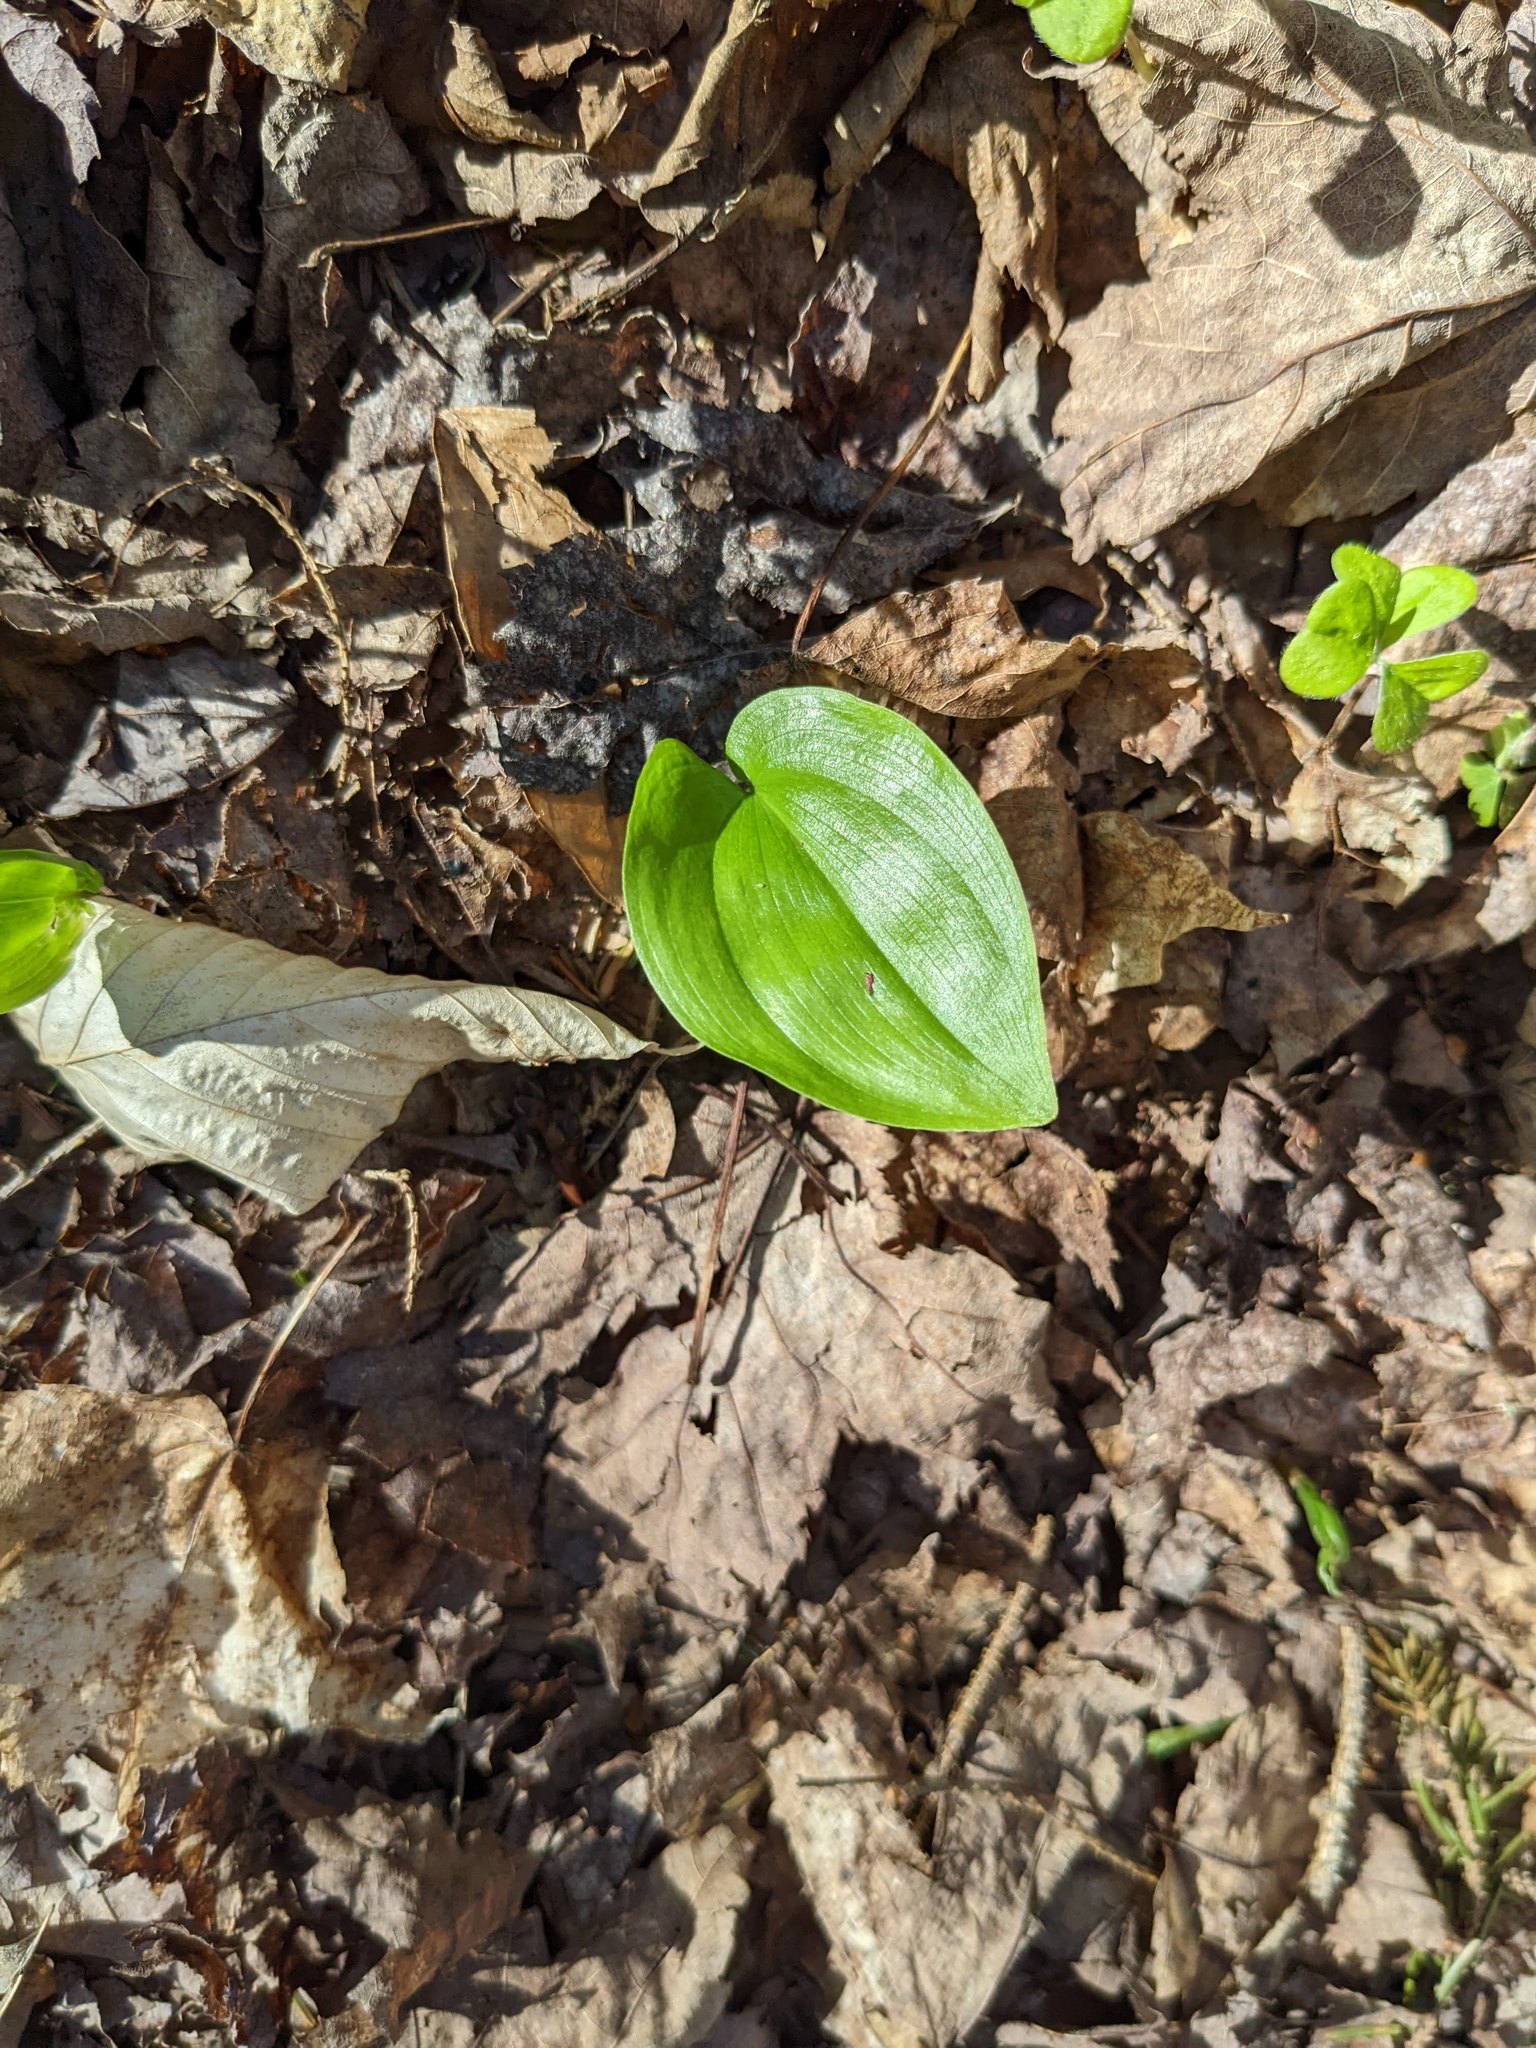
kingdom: Plantae
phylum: Tracheophyta
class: Liliopsida
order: Asparagales
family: Asparagaceae
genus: Maianthemum
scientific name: Maianthemum canadense
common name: False lily-of-the-valley
